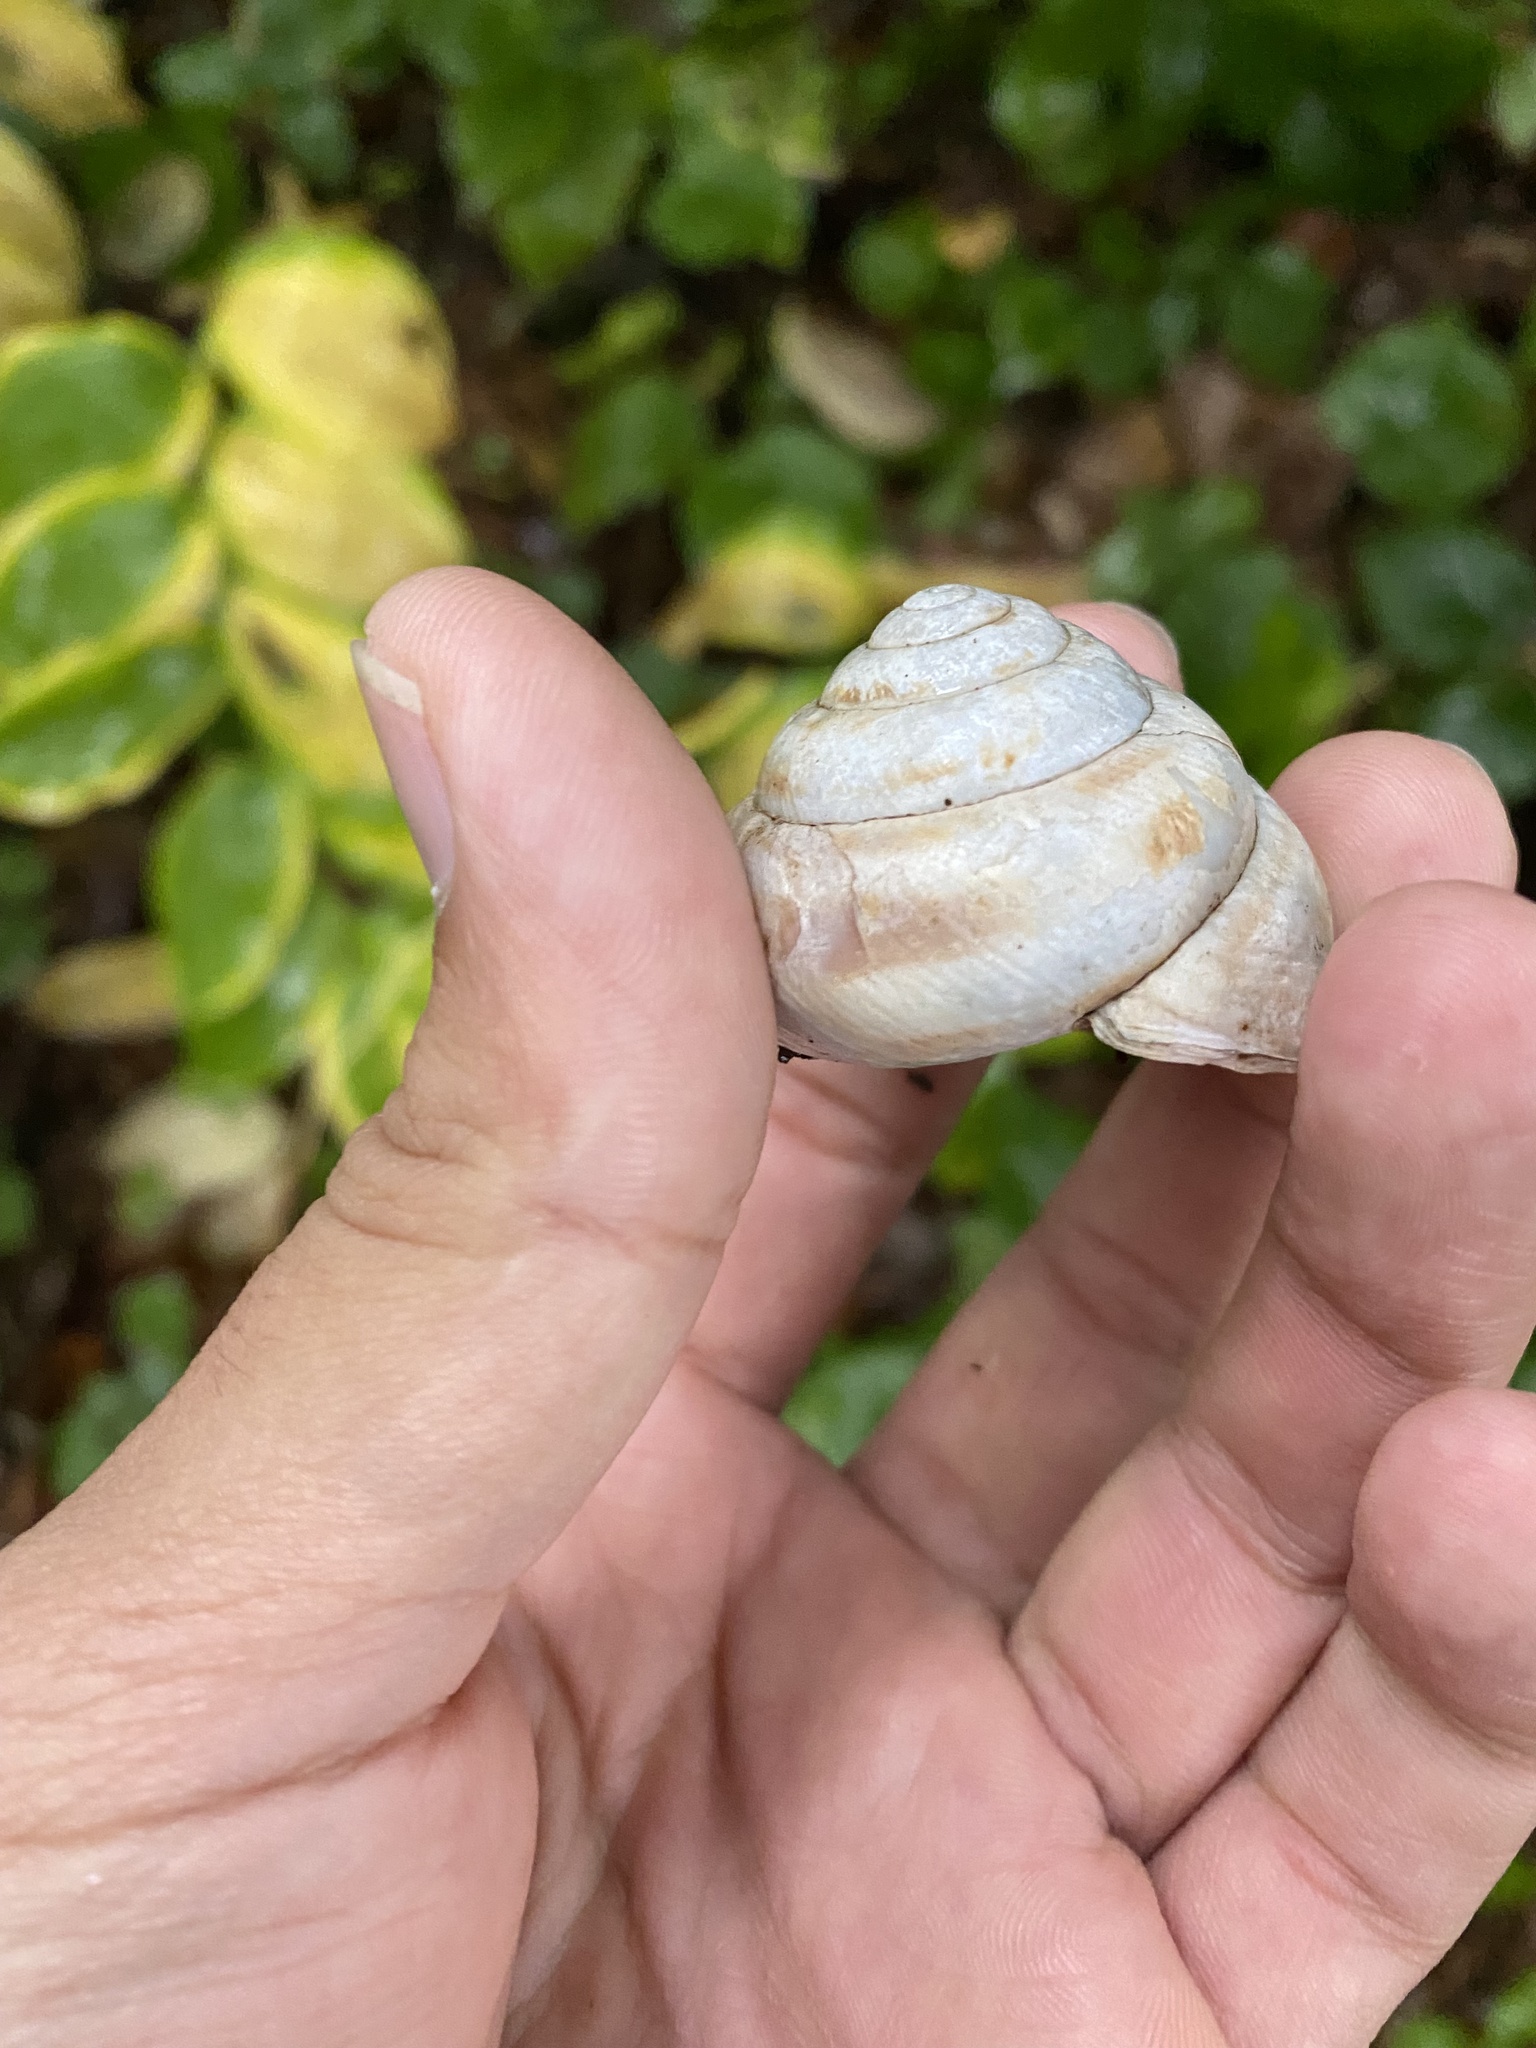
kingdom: Animalia
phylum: Mollusca
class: Gastropoda
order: Stylommatophora
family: Helicidae
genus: Caucasotachea
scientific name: Caucasotachea atrolabiata
